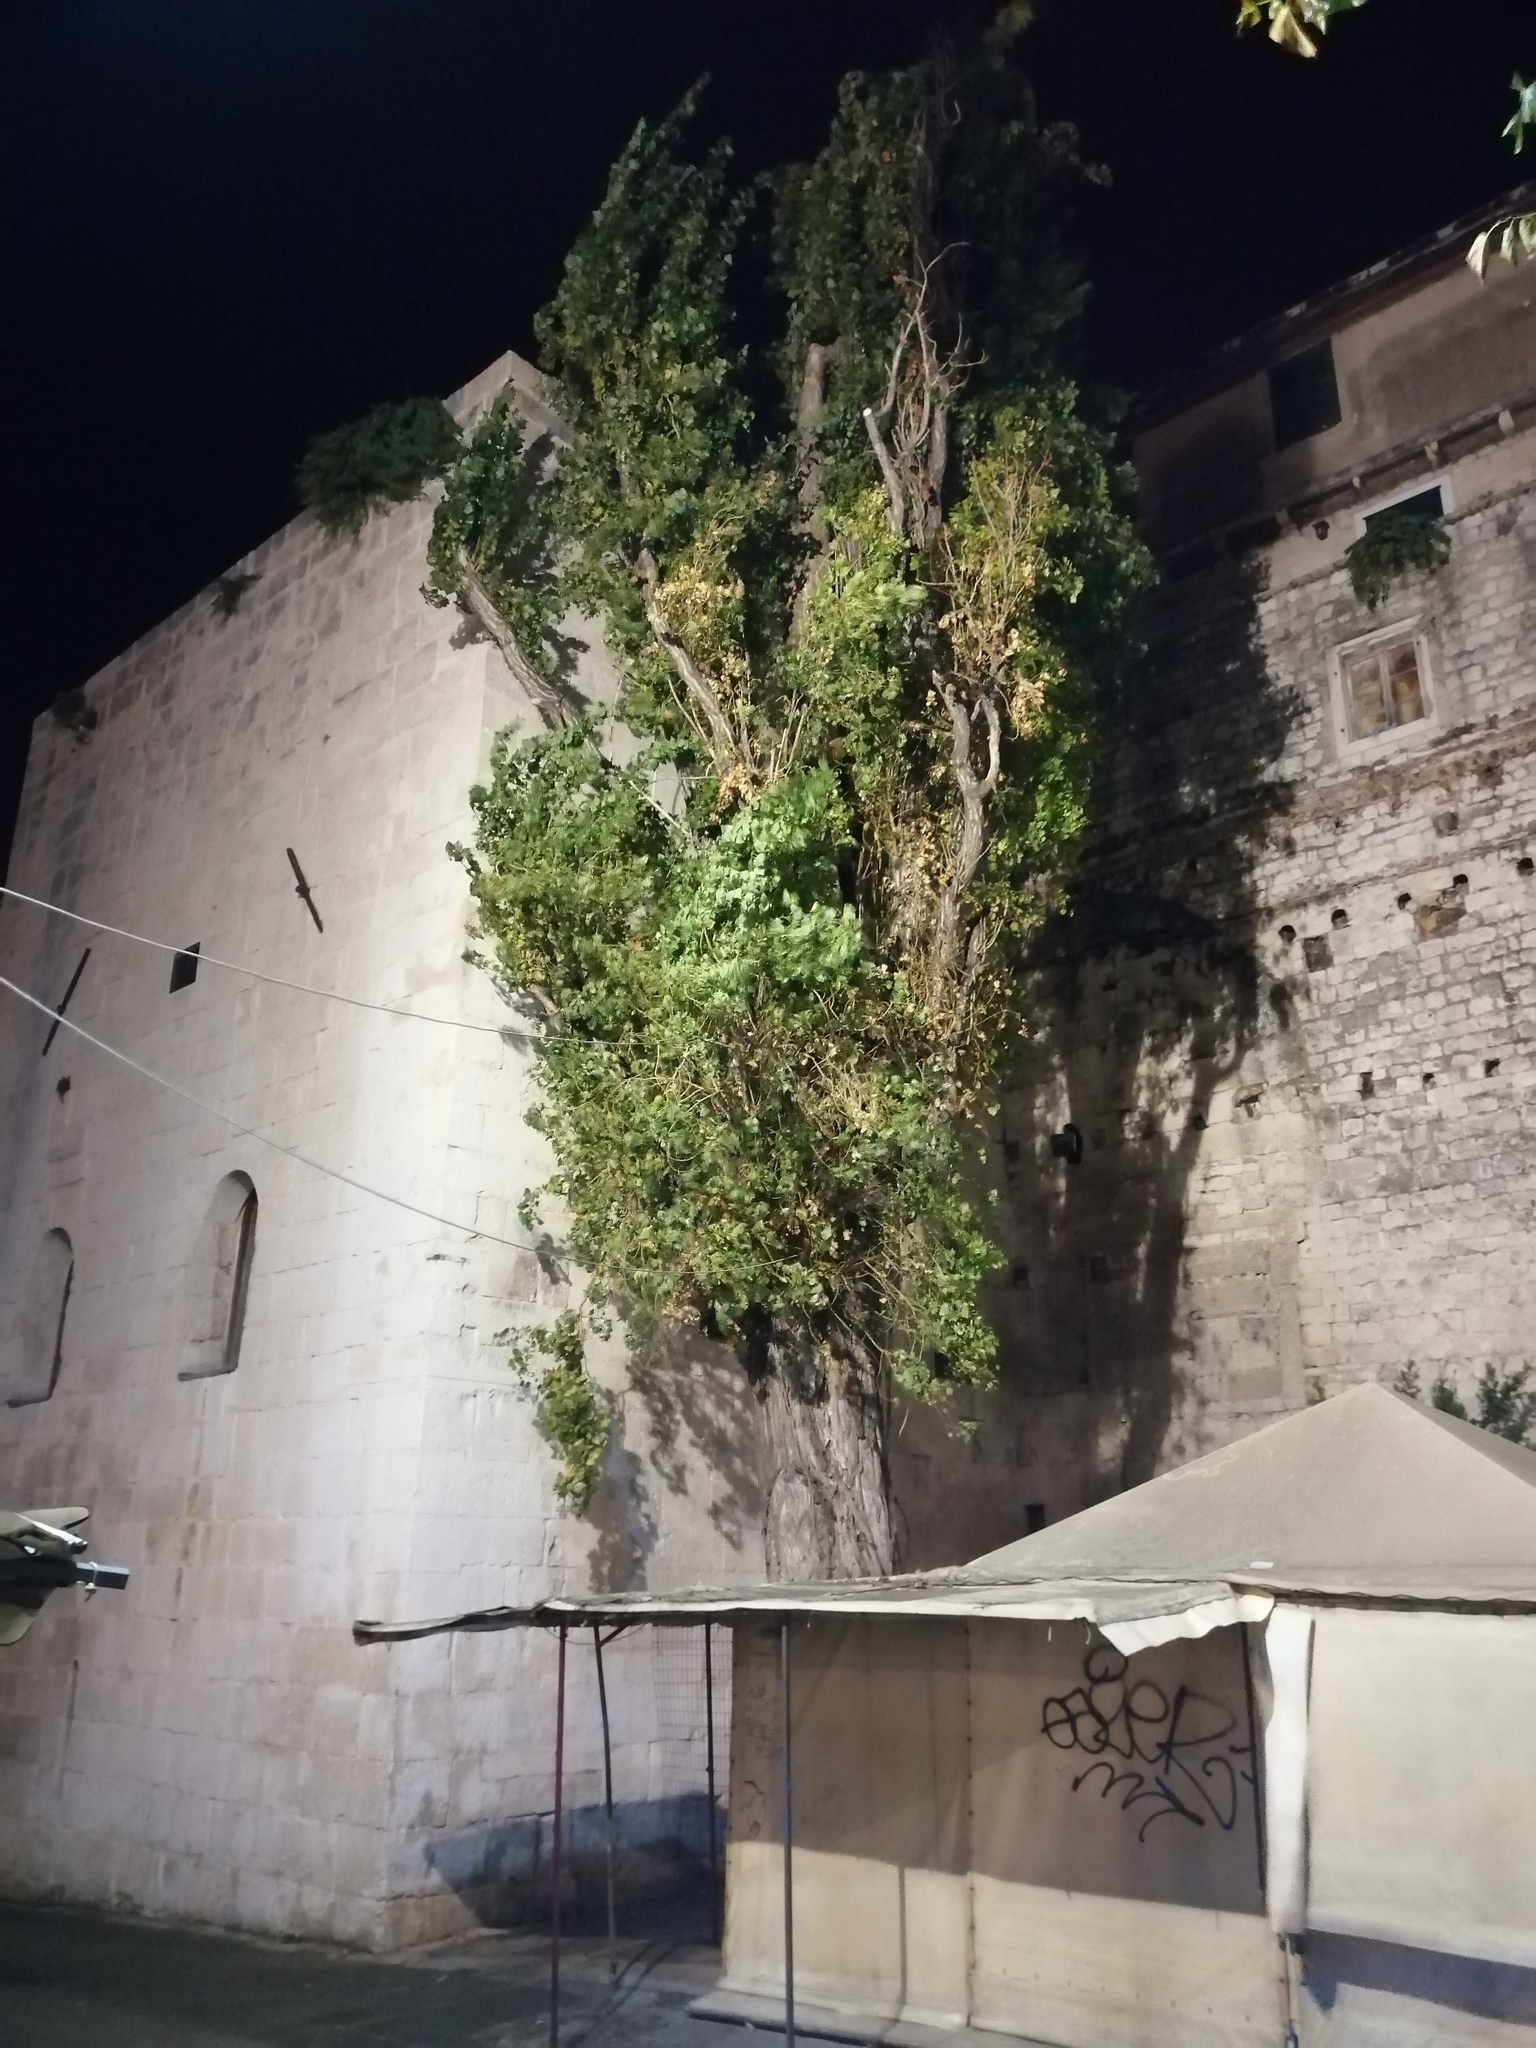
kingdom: Plantae
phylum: Tracheophyta
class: Magnoliopsida
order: Malpighiales
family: Salicaceae
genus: Populus
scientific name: Populus nigra
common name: Black poplar
